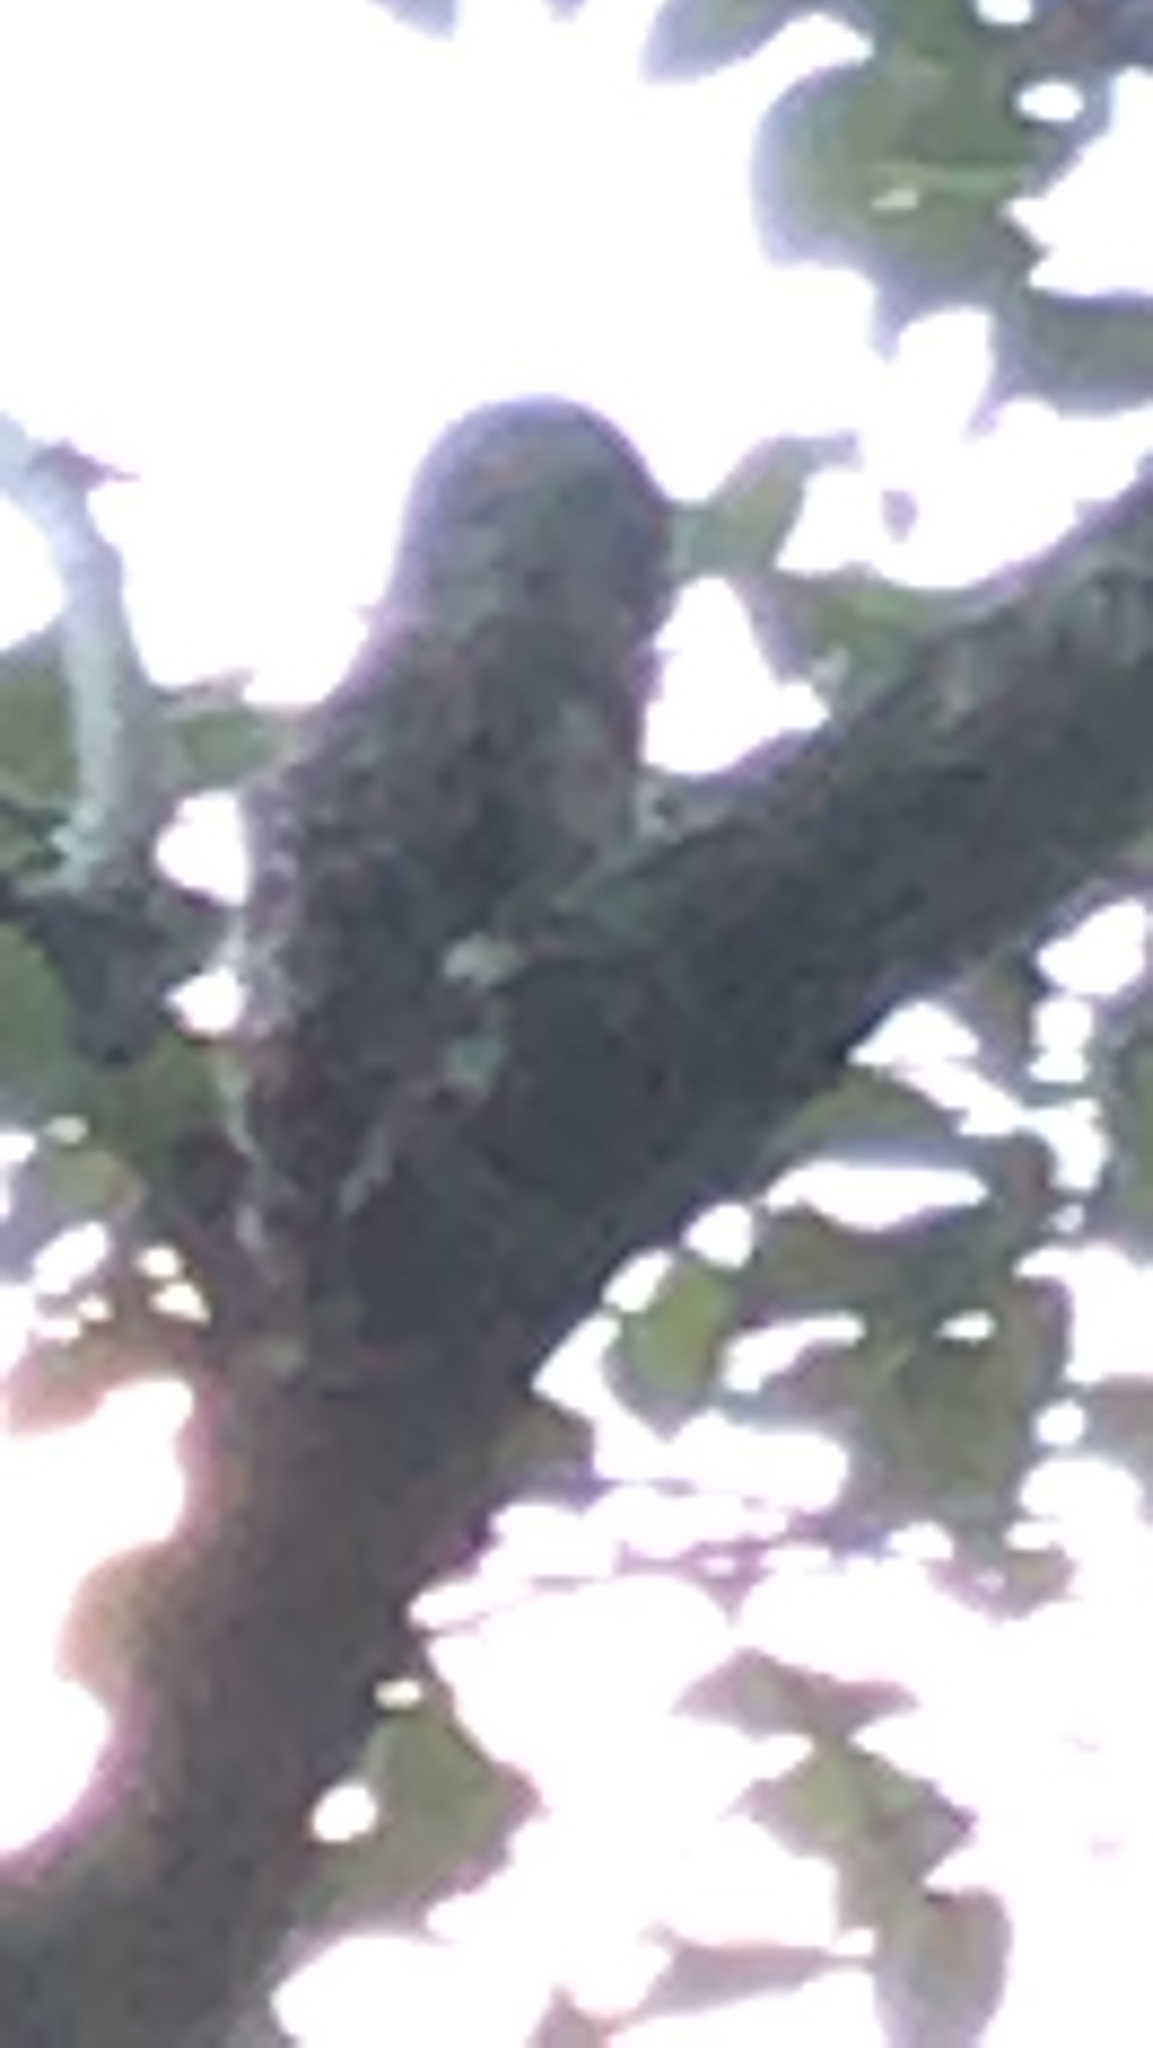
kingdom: Animalia
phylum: Chordata
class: Aves
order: Strigiformes
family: Strigidae
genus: Strix
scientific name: Strix varia
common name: Barred owl
